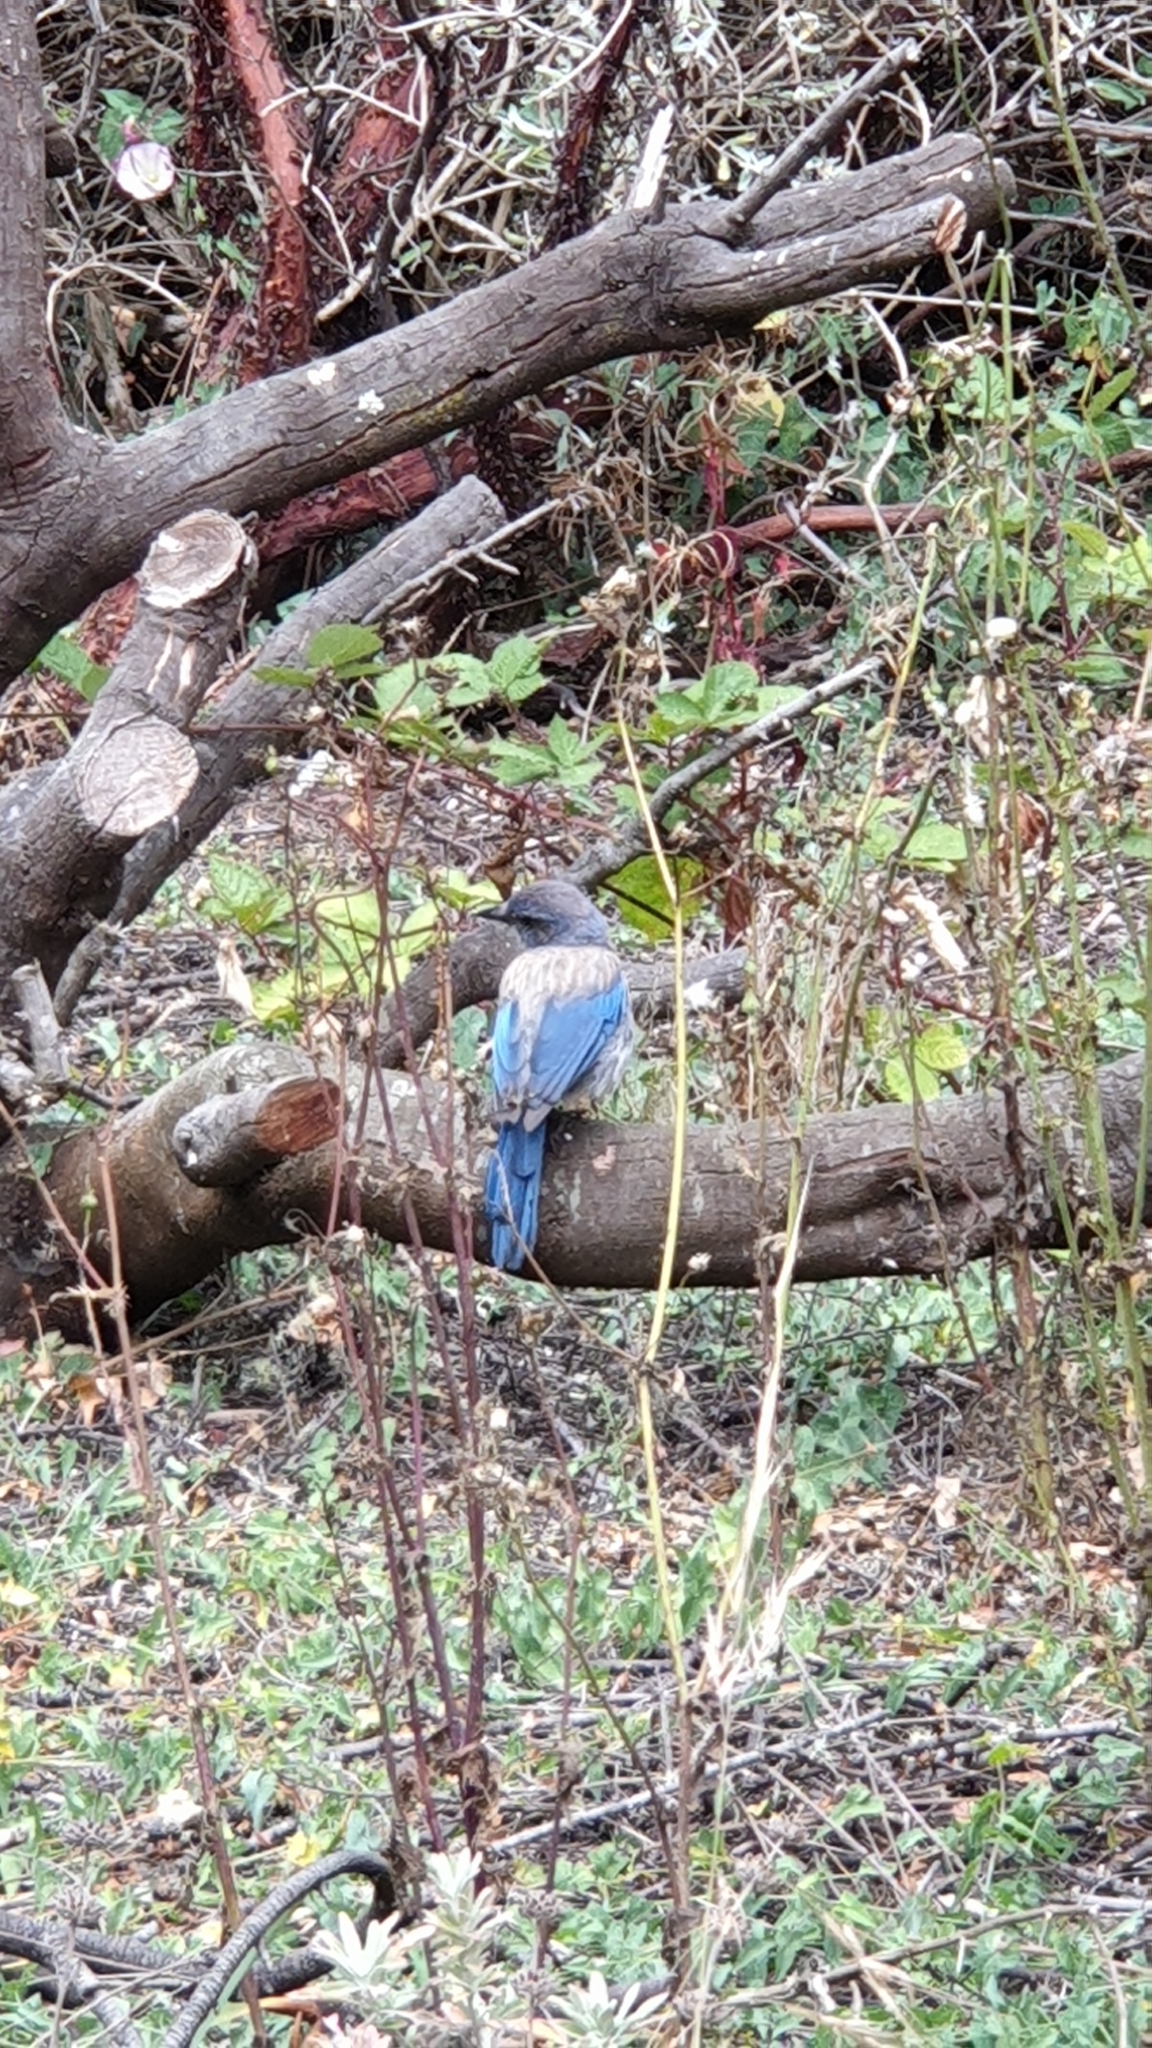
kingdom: Animalia
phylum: Chordata
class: Aves
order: Passeriformes
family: Corvidae
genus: Aphelocoma
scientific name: Aphelocoma californica
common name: California scrub-jay
